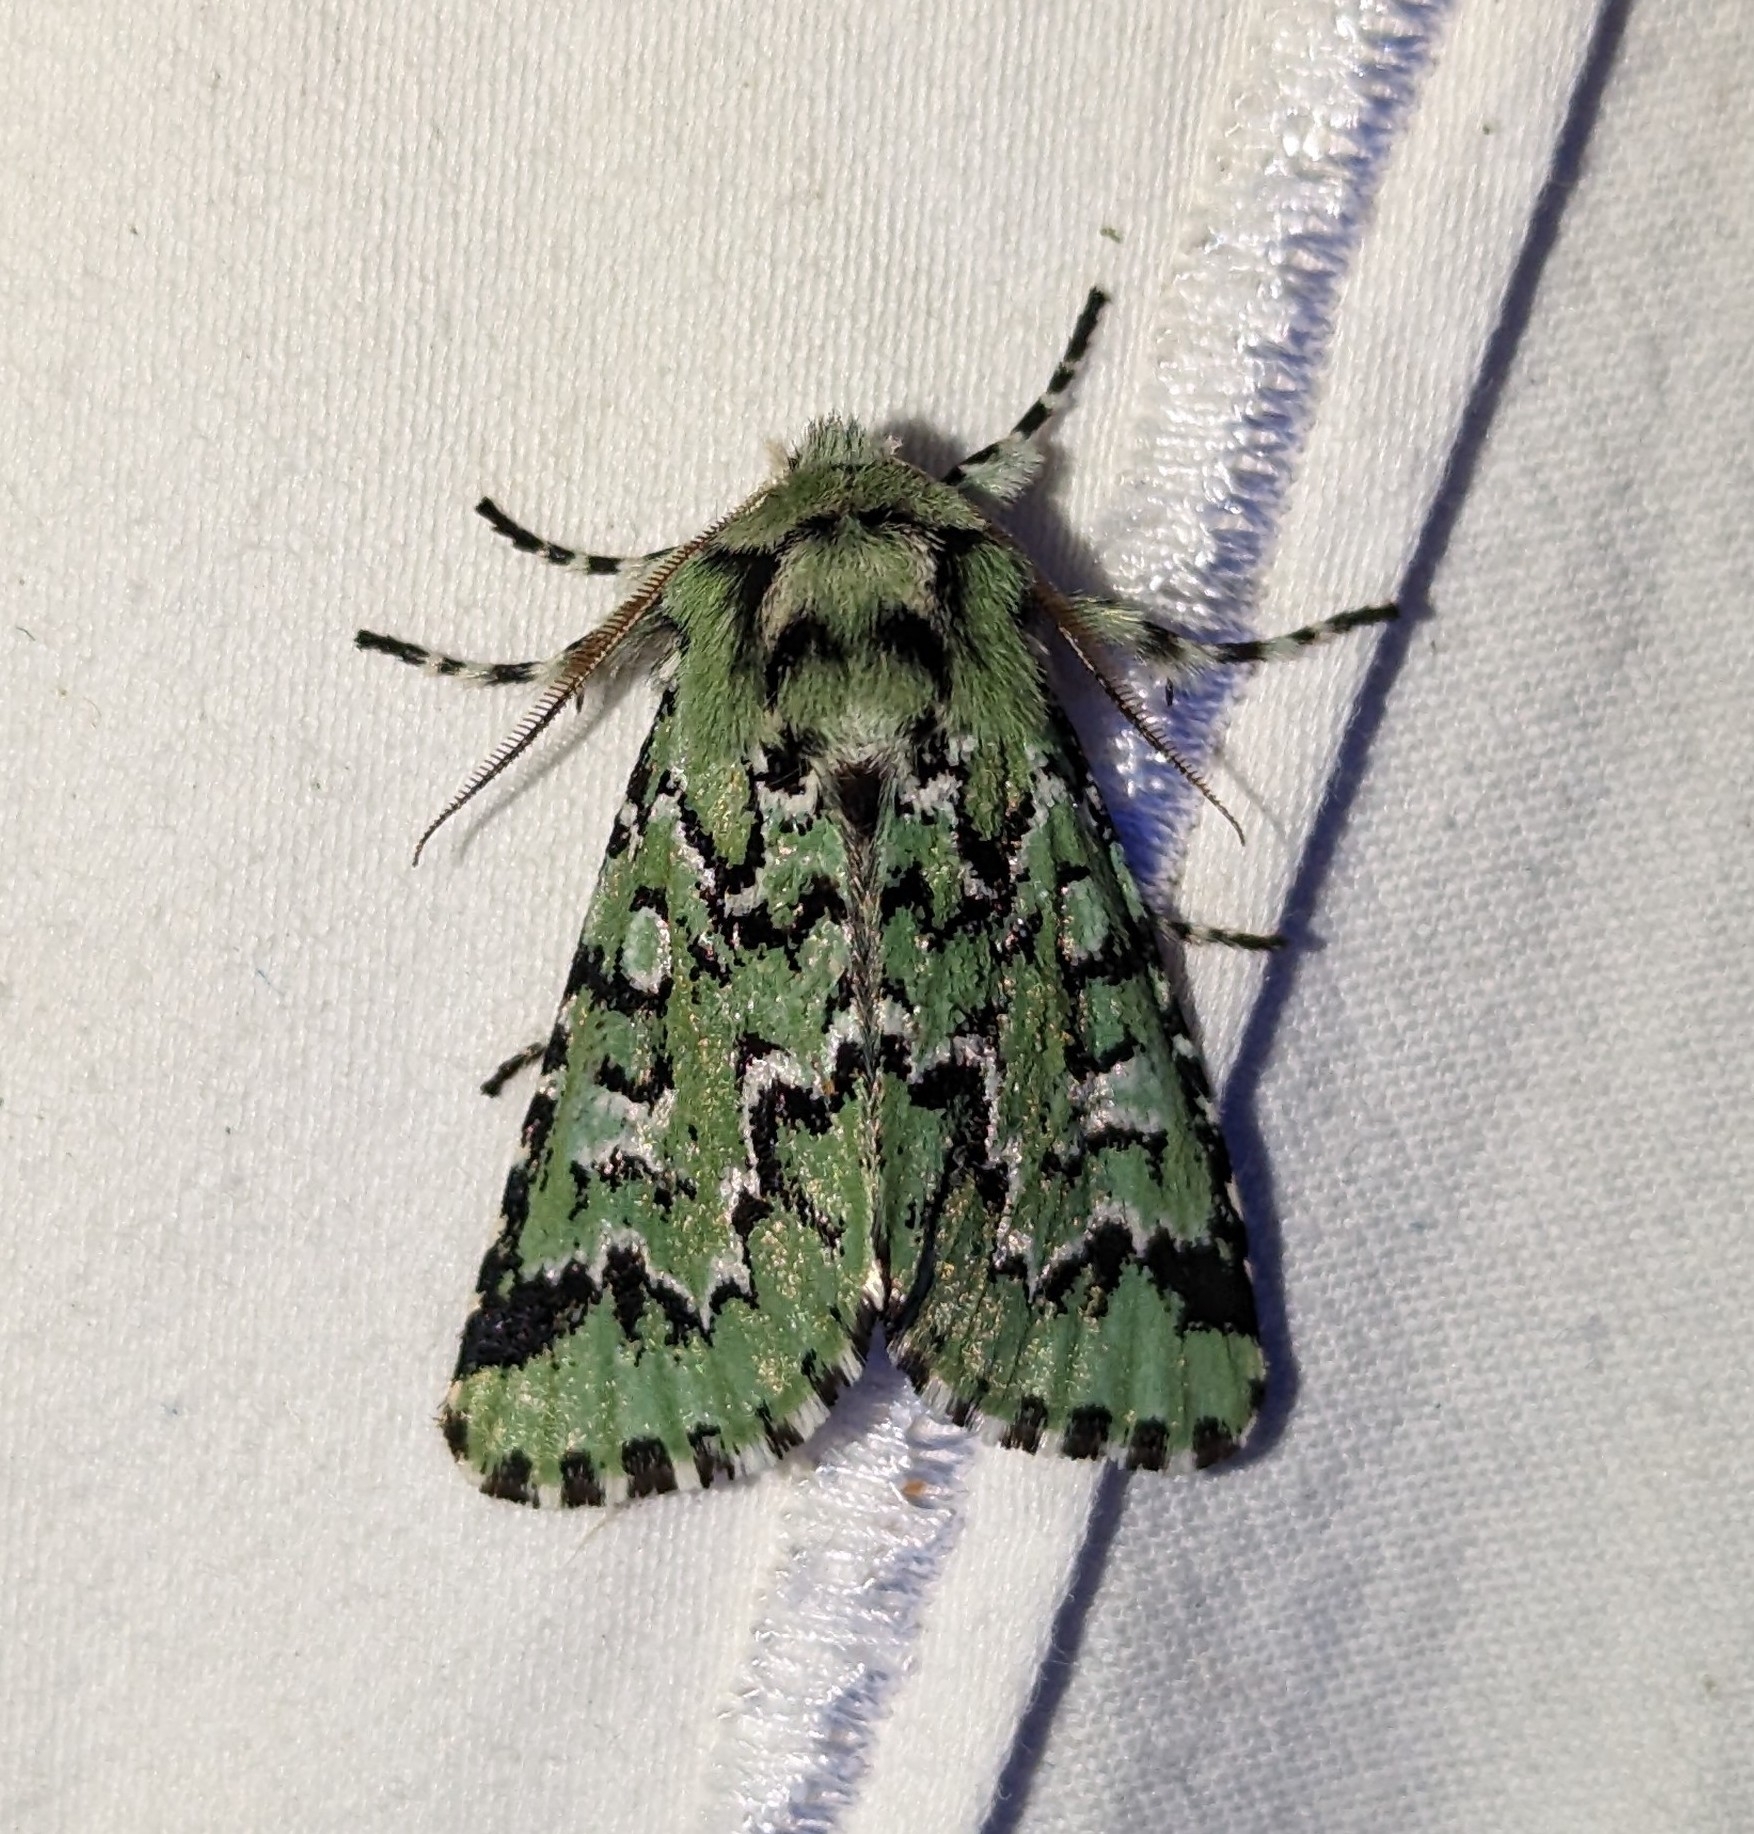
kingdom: Animalia
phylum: Arthropoda
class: Insecta
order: Lepidoptera
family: Noctuidae
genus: Feralia
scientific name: Feralia deceptiva
